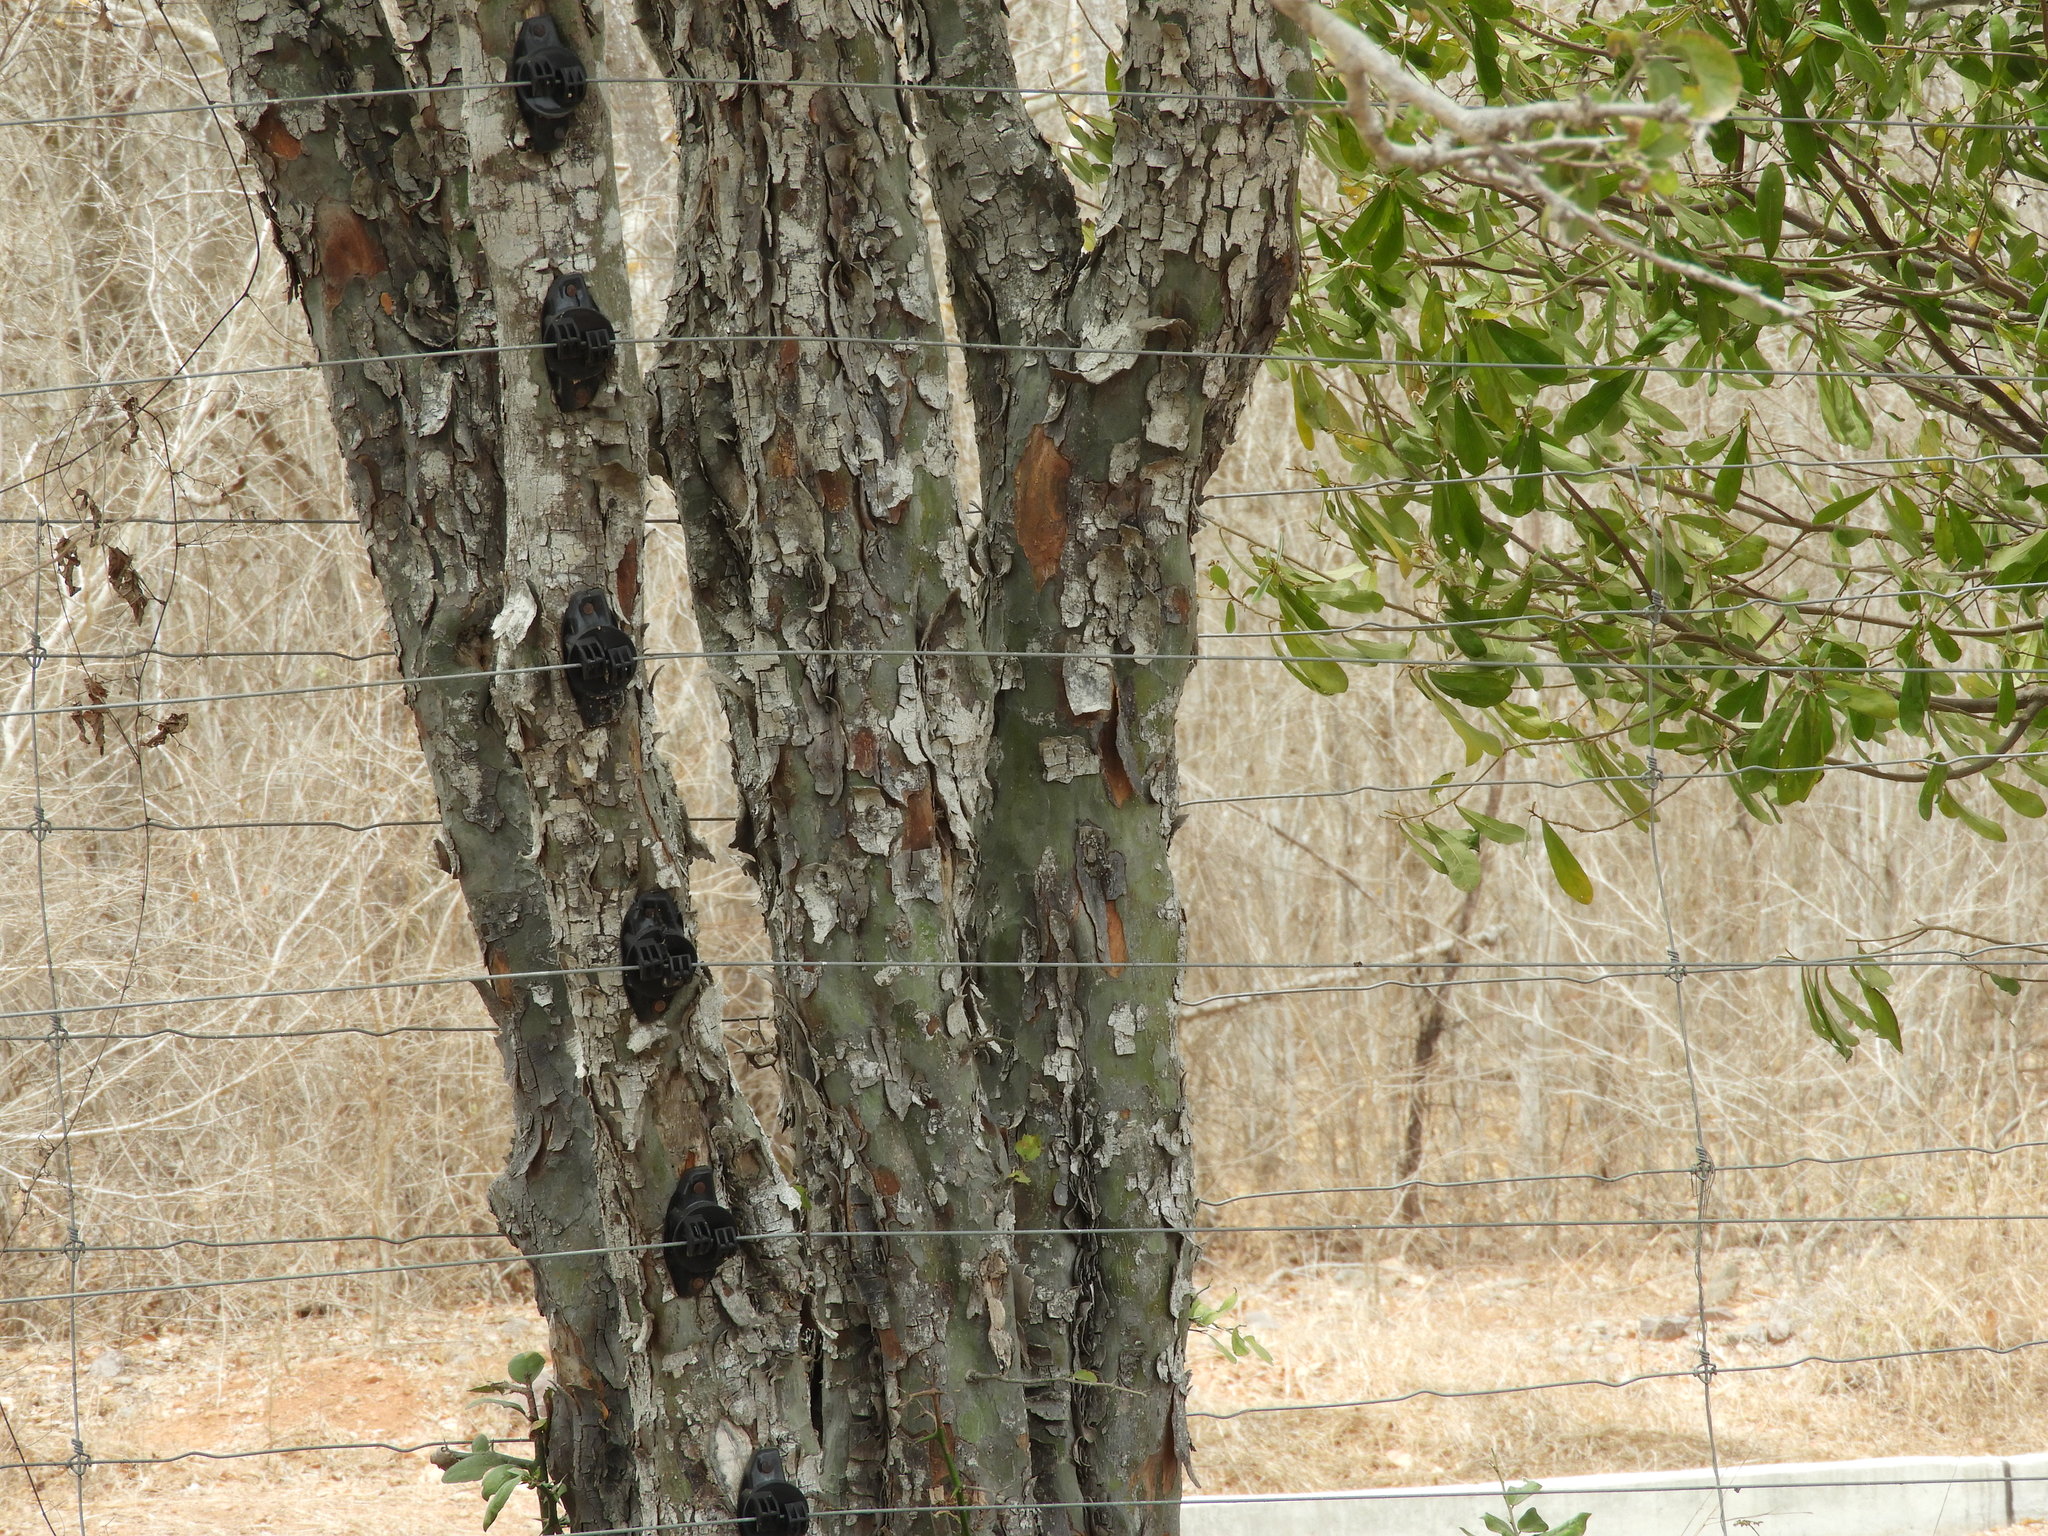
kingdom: Plantae
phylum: Tracheophyta
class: Magnoliopsida
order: Rosales
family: Rhamnaceae
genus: Sarcomphalus
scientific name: Sarcomphalus obtusifolius
